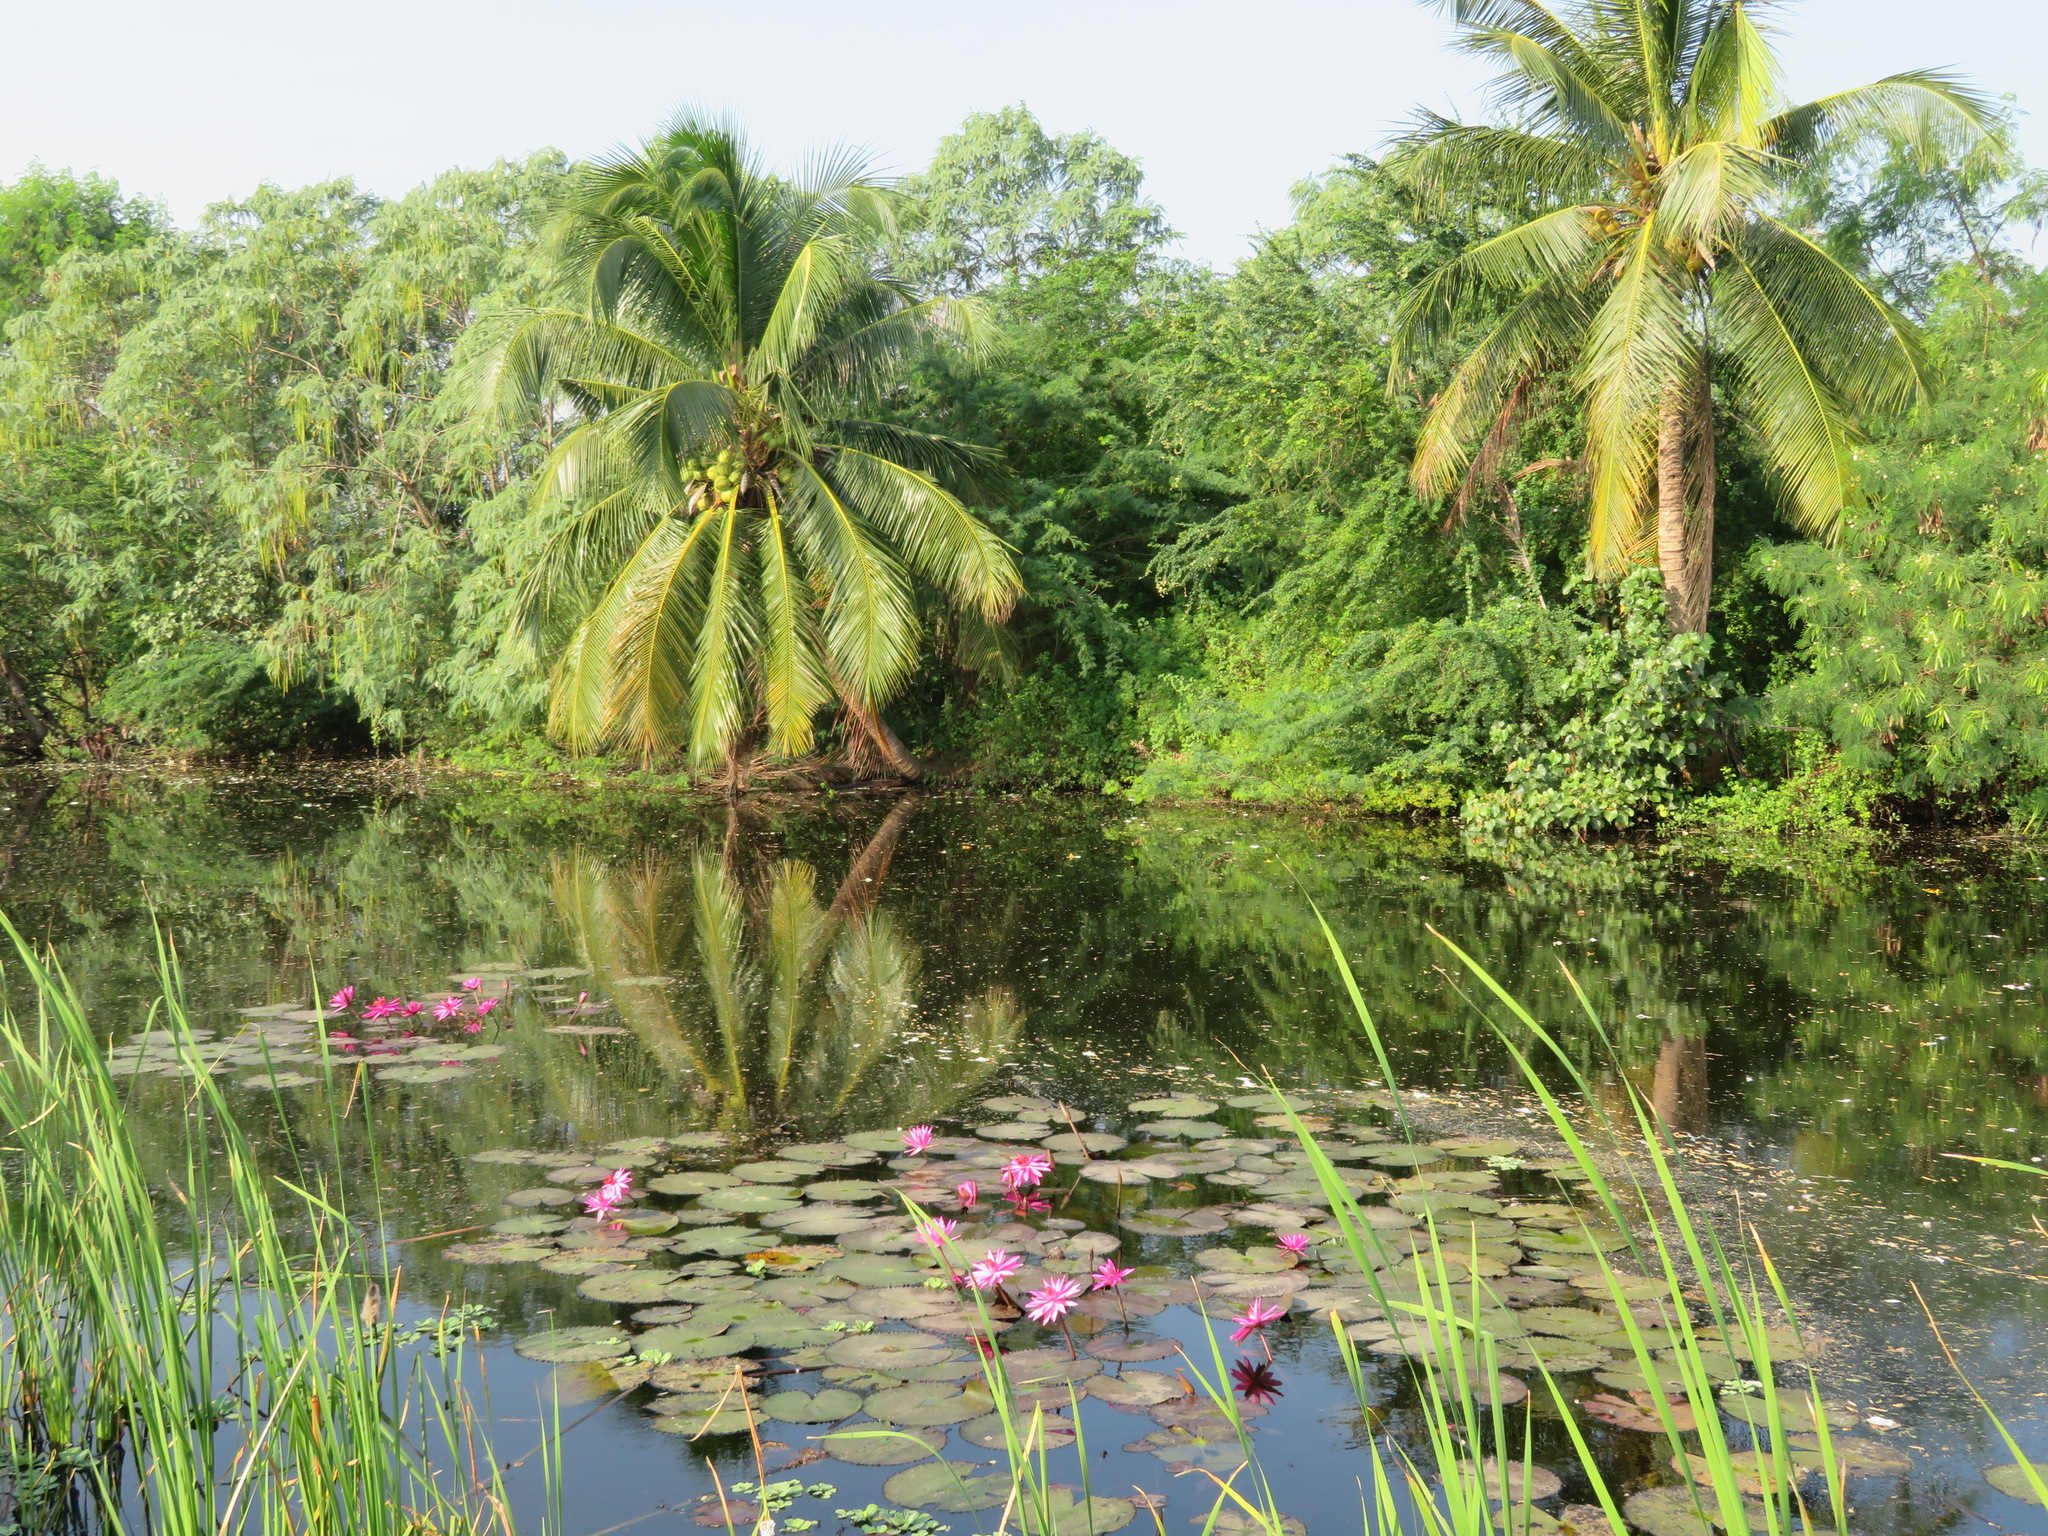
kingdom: Plantae
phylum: Tracheophyta
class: Magnoliopsida
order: Nymphaeales
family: Nymphaeaceae
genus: Nymphaea
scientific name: Nymphaea rubra
